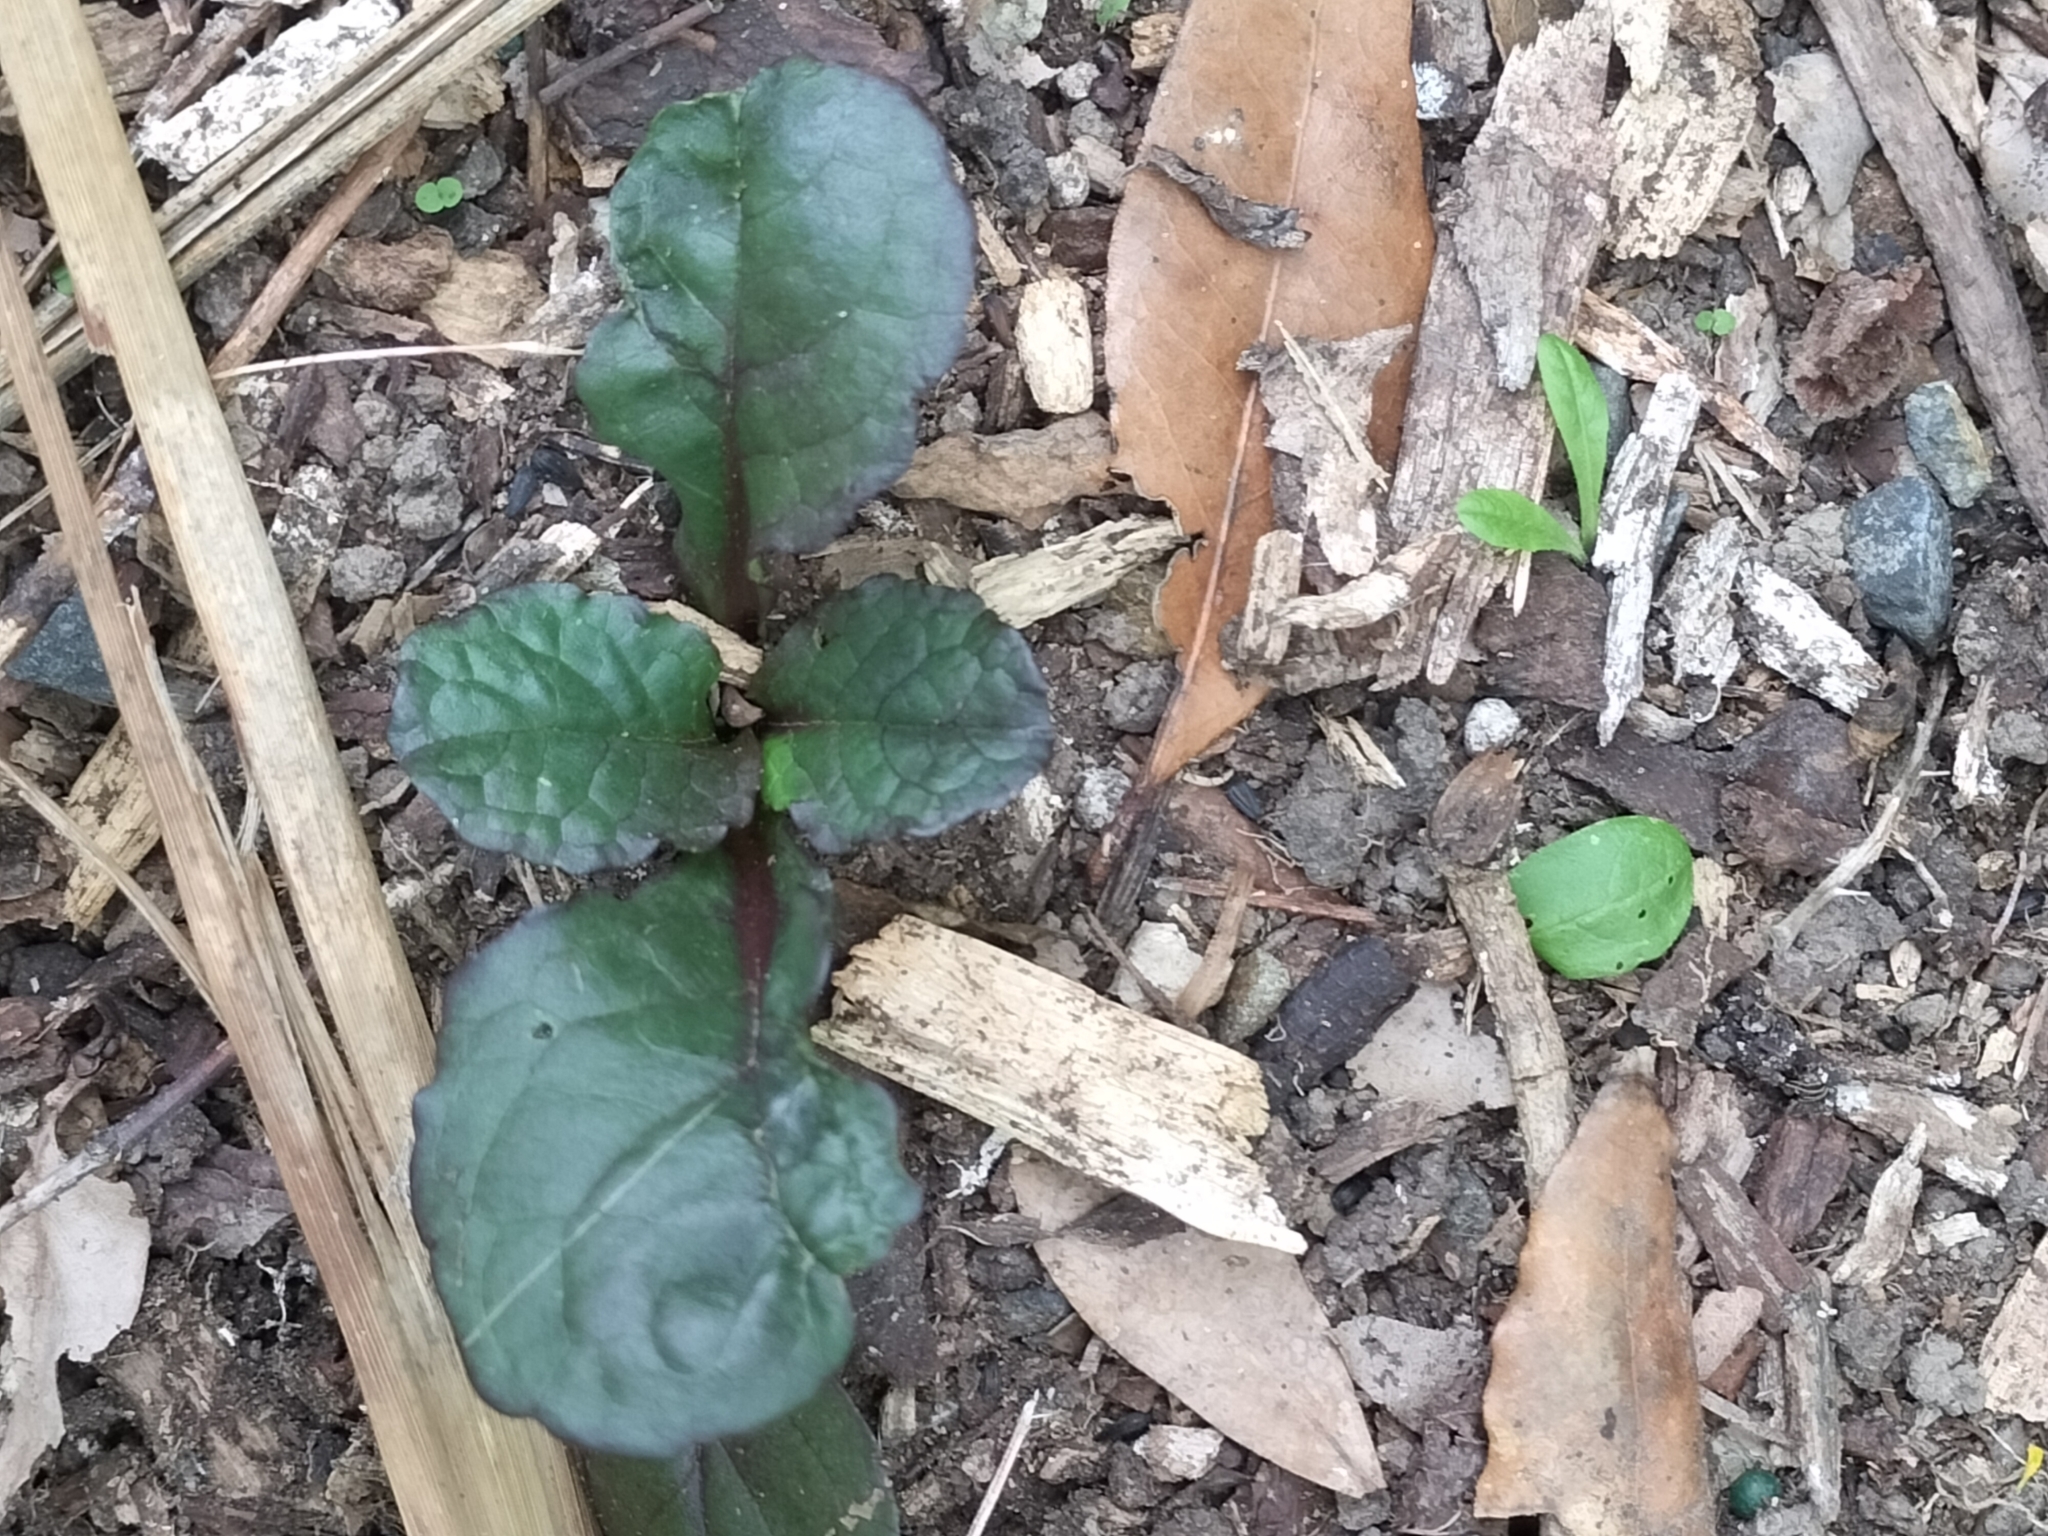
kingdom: Plantae
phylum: Tracheophyta
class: Magnoliopsida
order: Lamiales
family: Lamiaceae
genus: Ajuga
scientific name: Ajuga reptans
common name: Bugle
